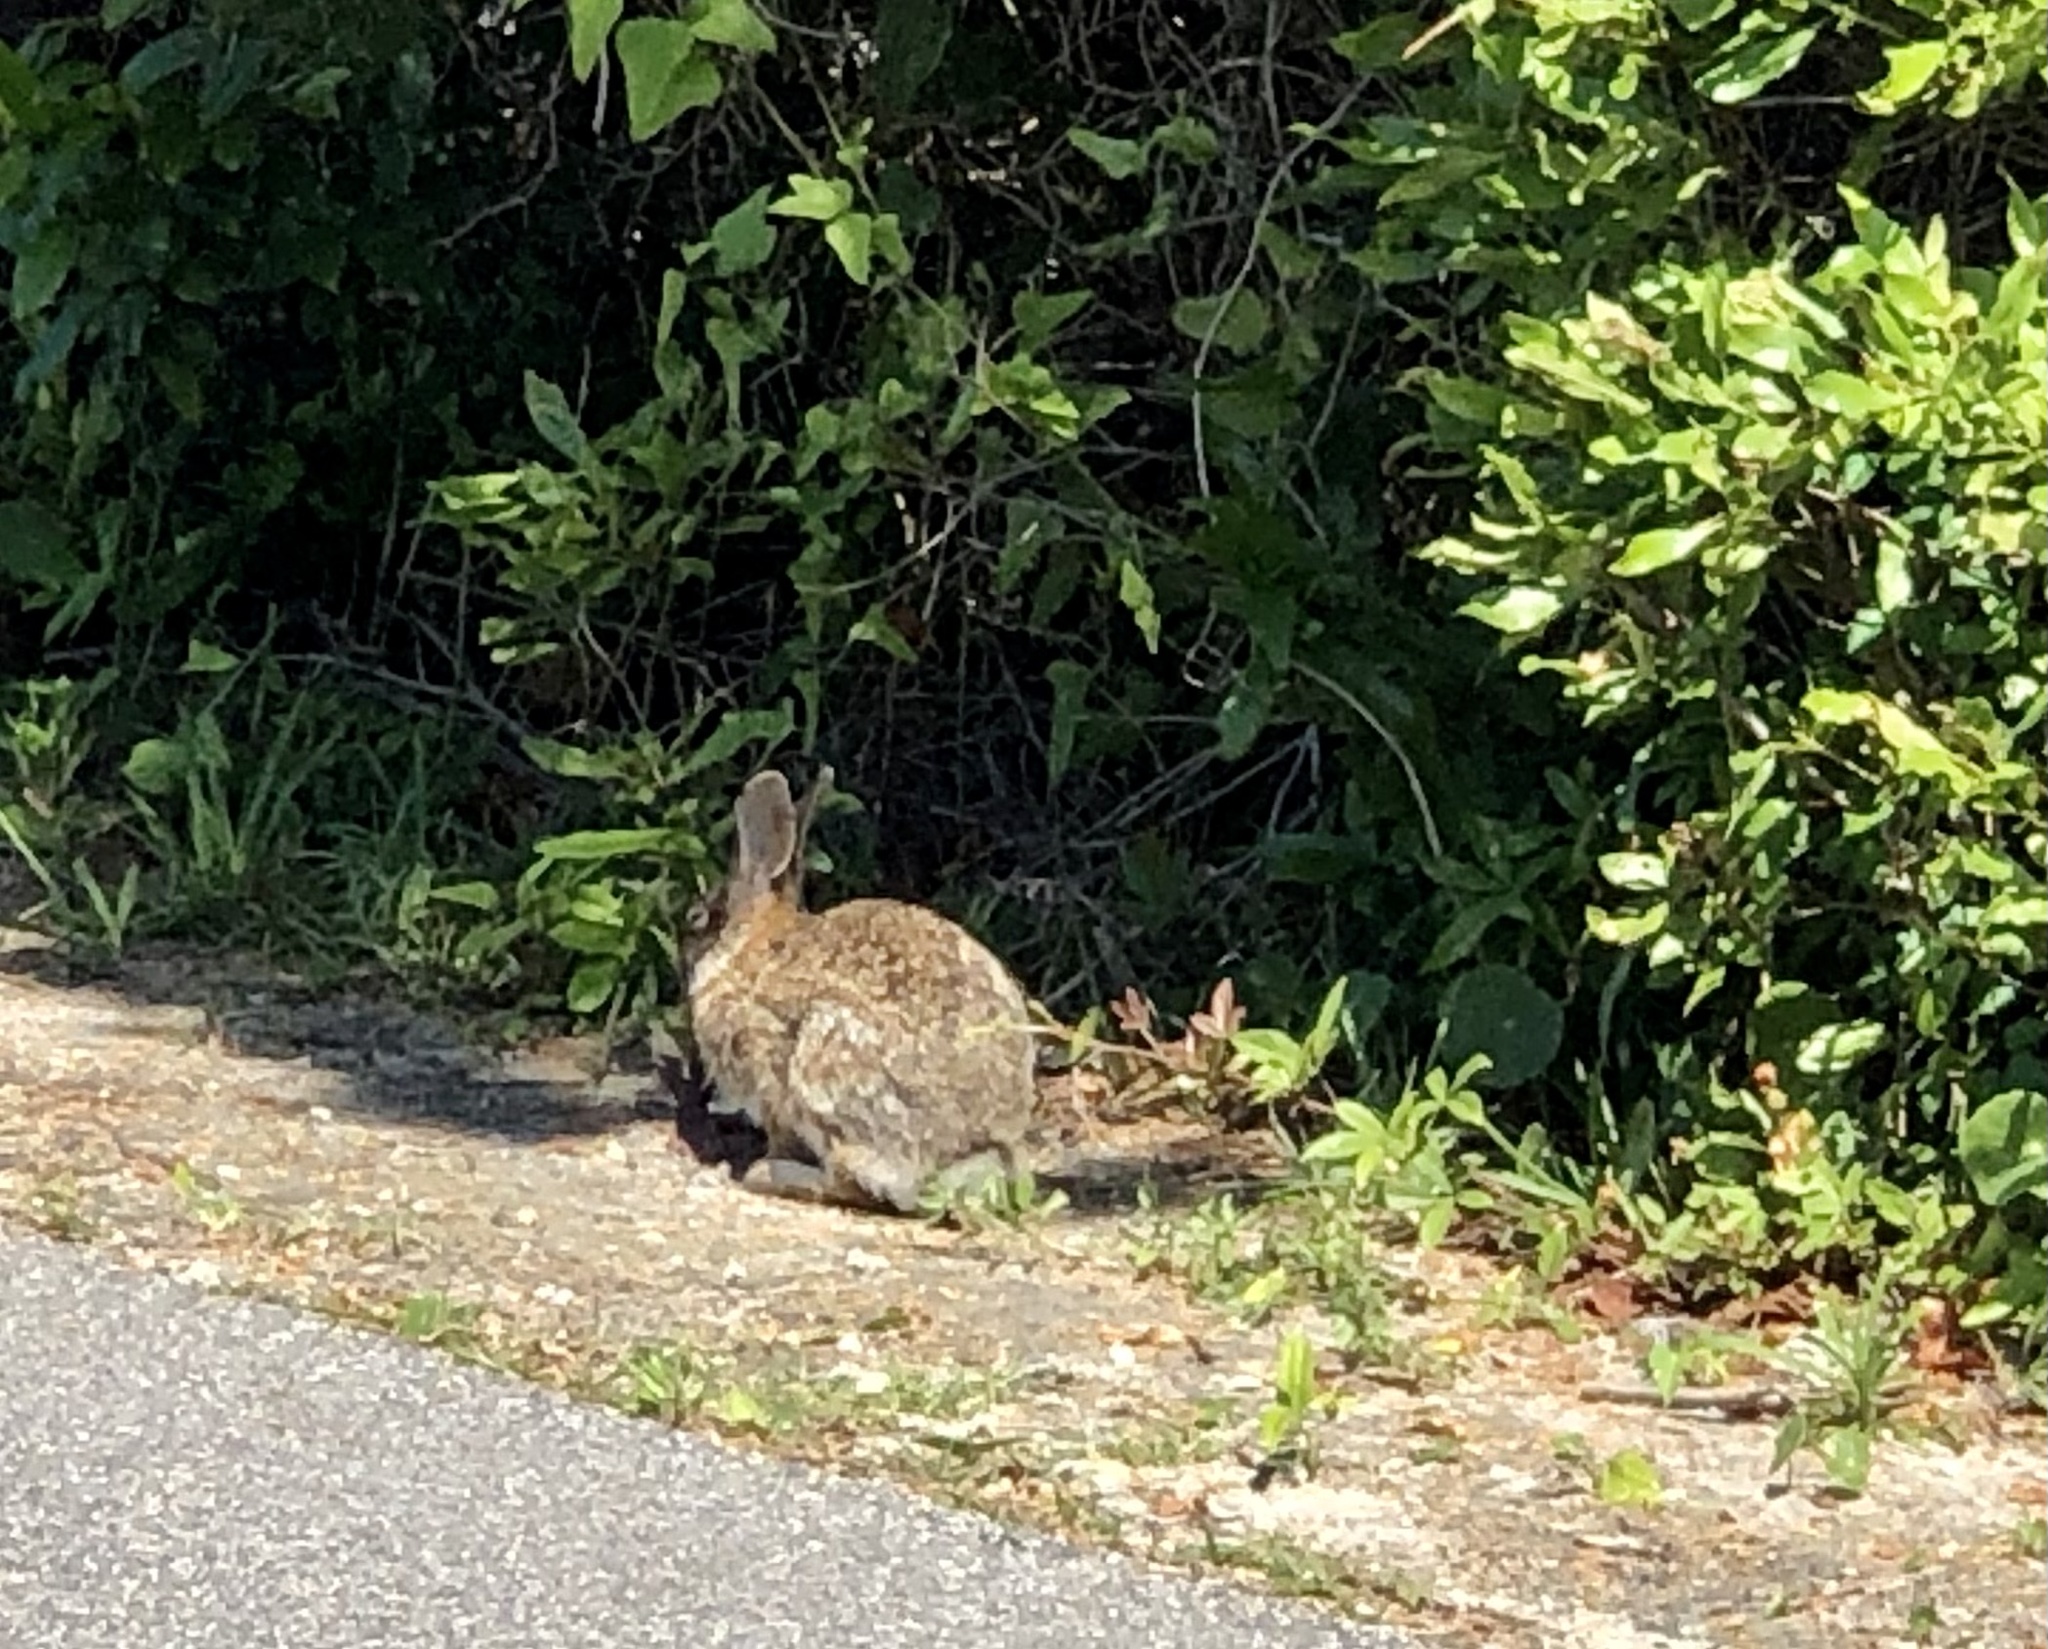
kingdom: Animalia
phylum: Chordata
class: Mammalia
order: Lagomorpha
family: Leporidae
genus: Sylvilagus
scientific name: Sylvilagus floridanus
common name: Eastern cottontail
